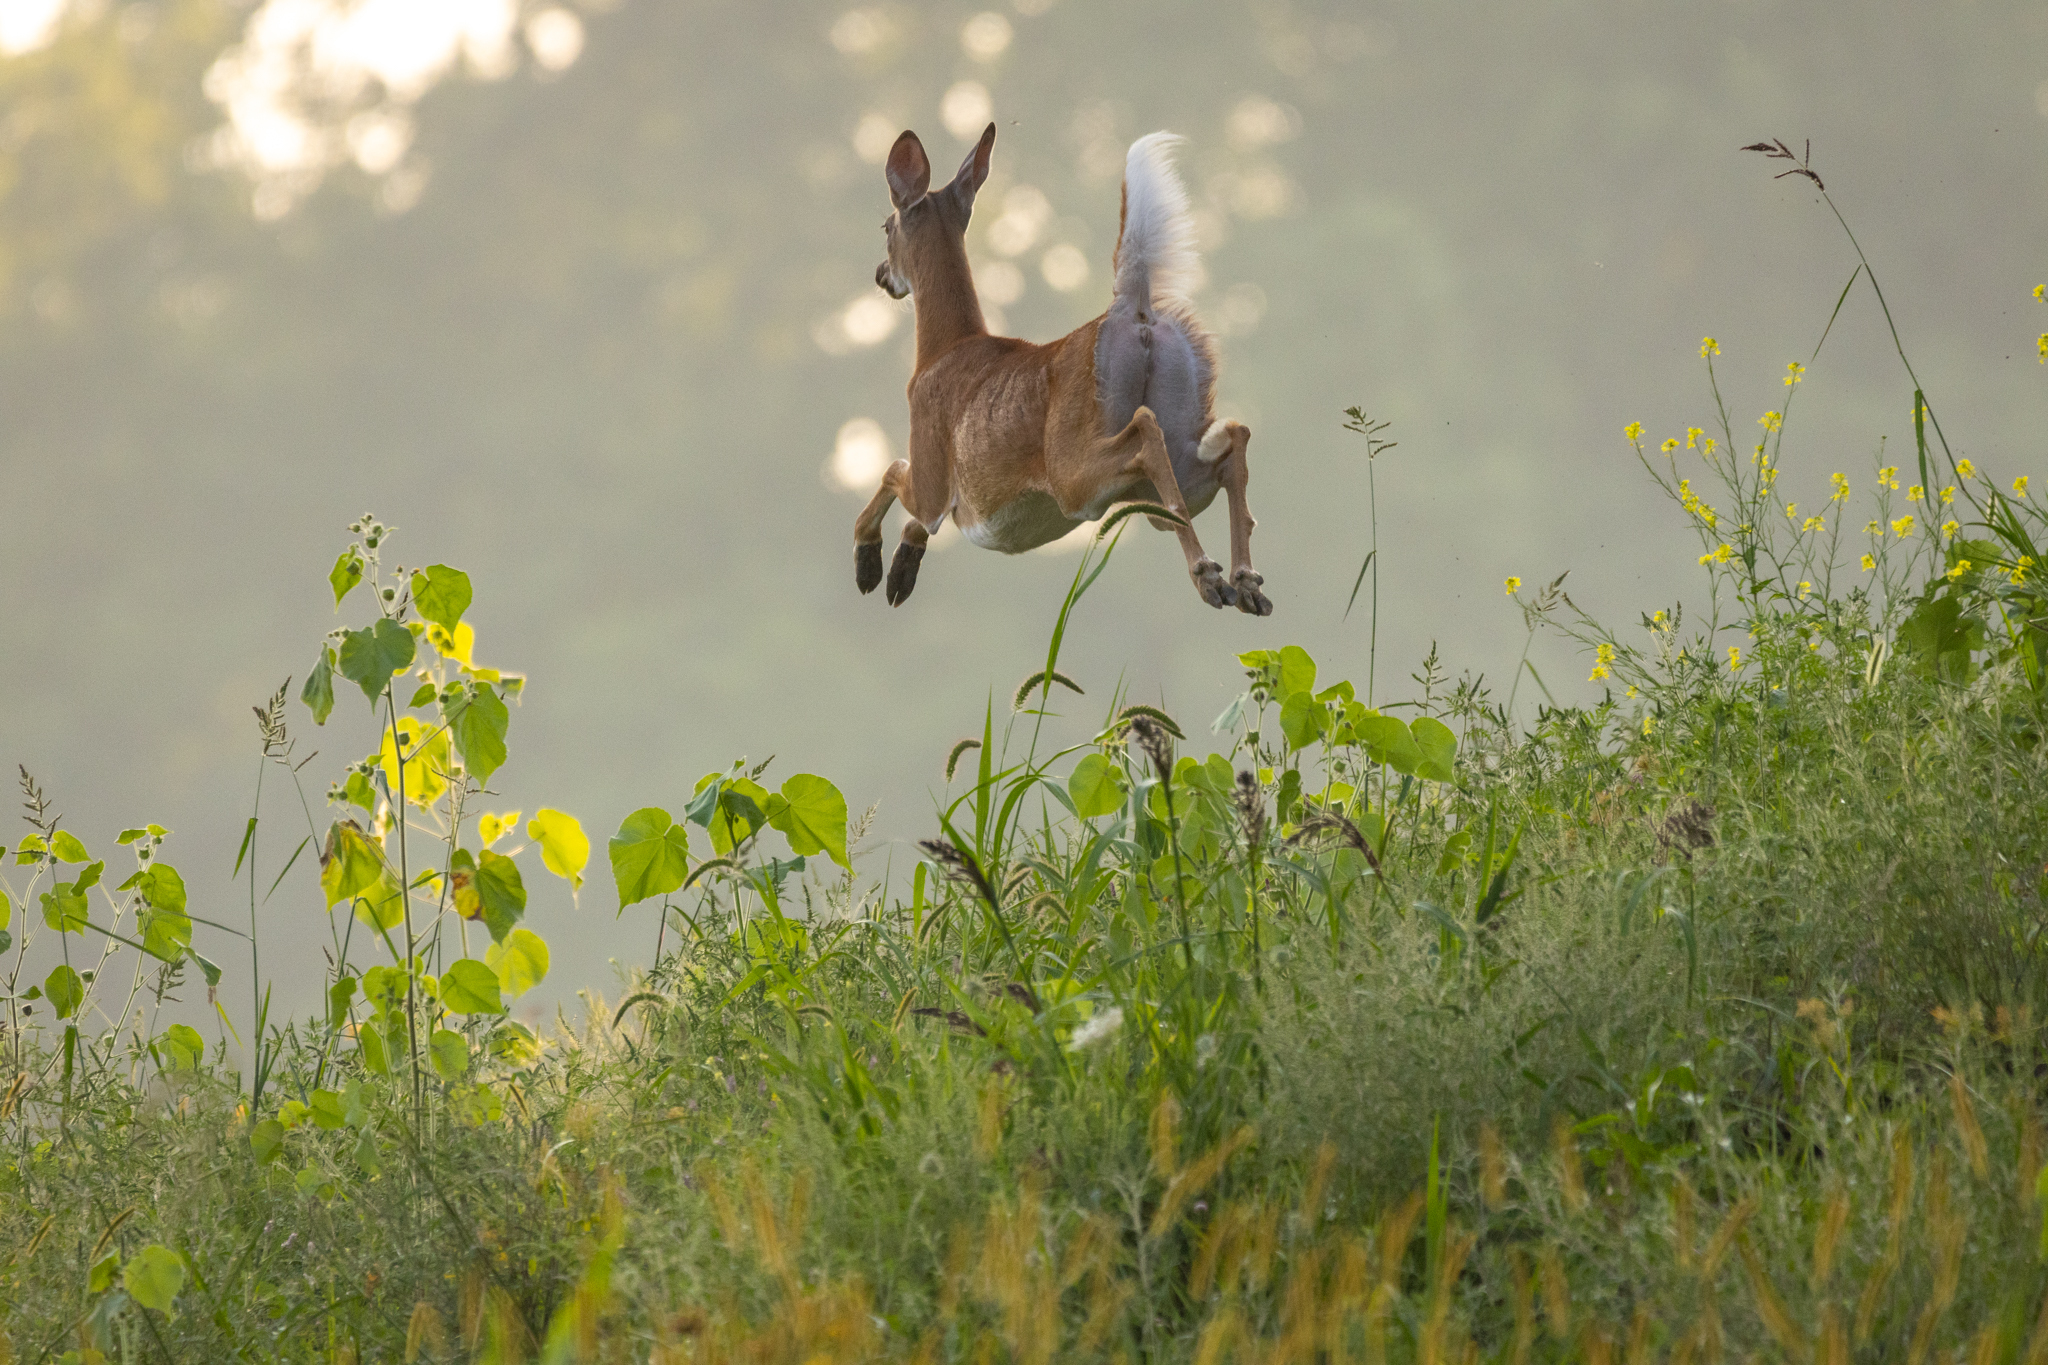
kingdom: Animalia
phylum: Chordata
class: Mammalia
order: Artiodactyla
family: Cervidae
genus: Odocoileus
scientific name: Odocoileus virginianus
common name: White-tailed deer
